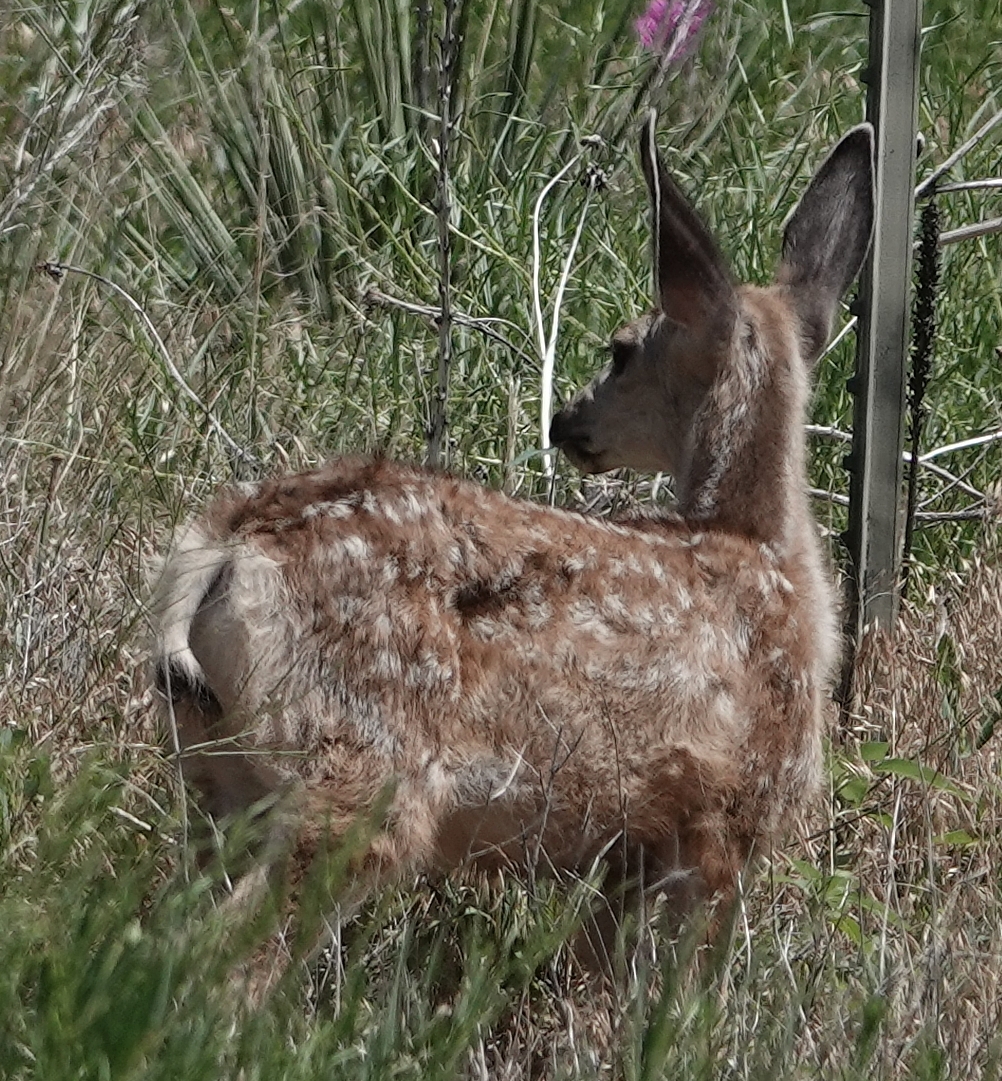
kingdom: Animalia
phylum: Chordata
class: Mammalia
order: Artiodactyla
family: Cervidae
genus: Odocoileus
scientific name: Odocoileus hemionus
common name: Mule deer
